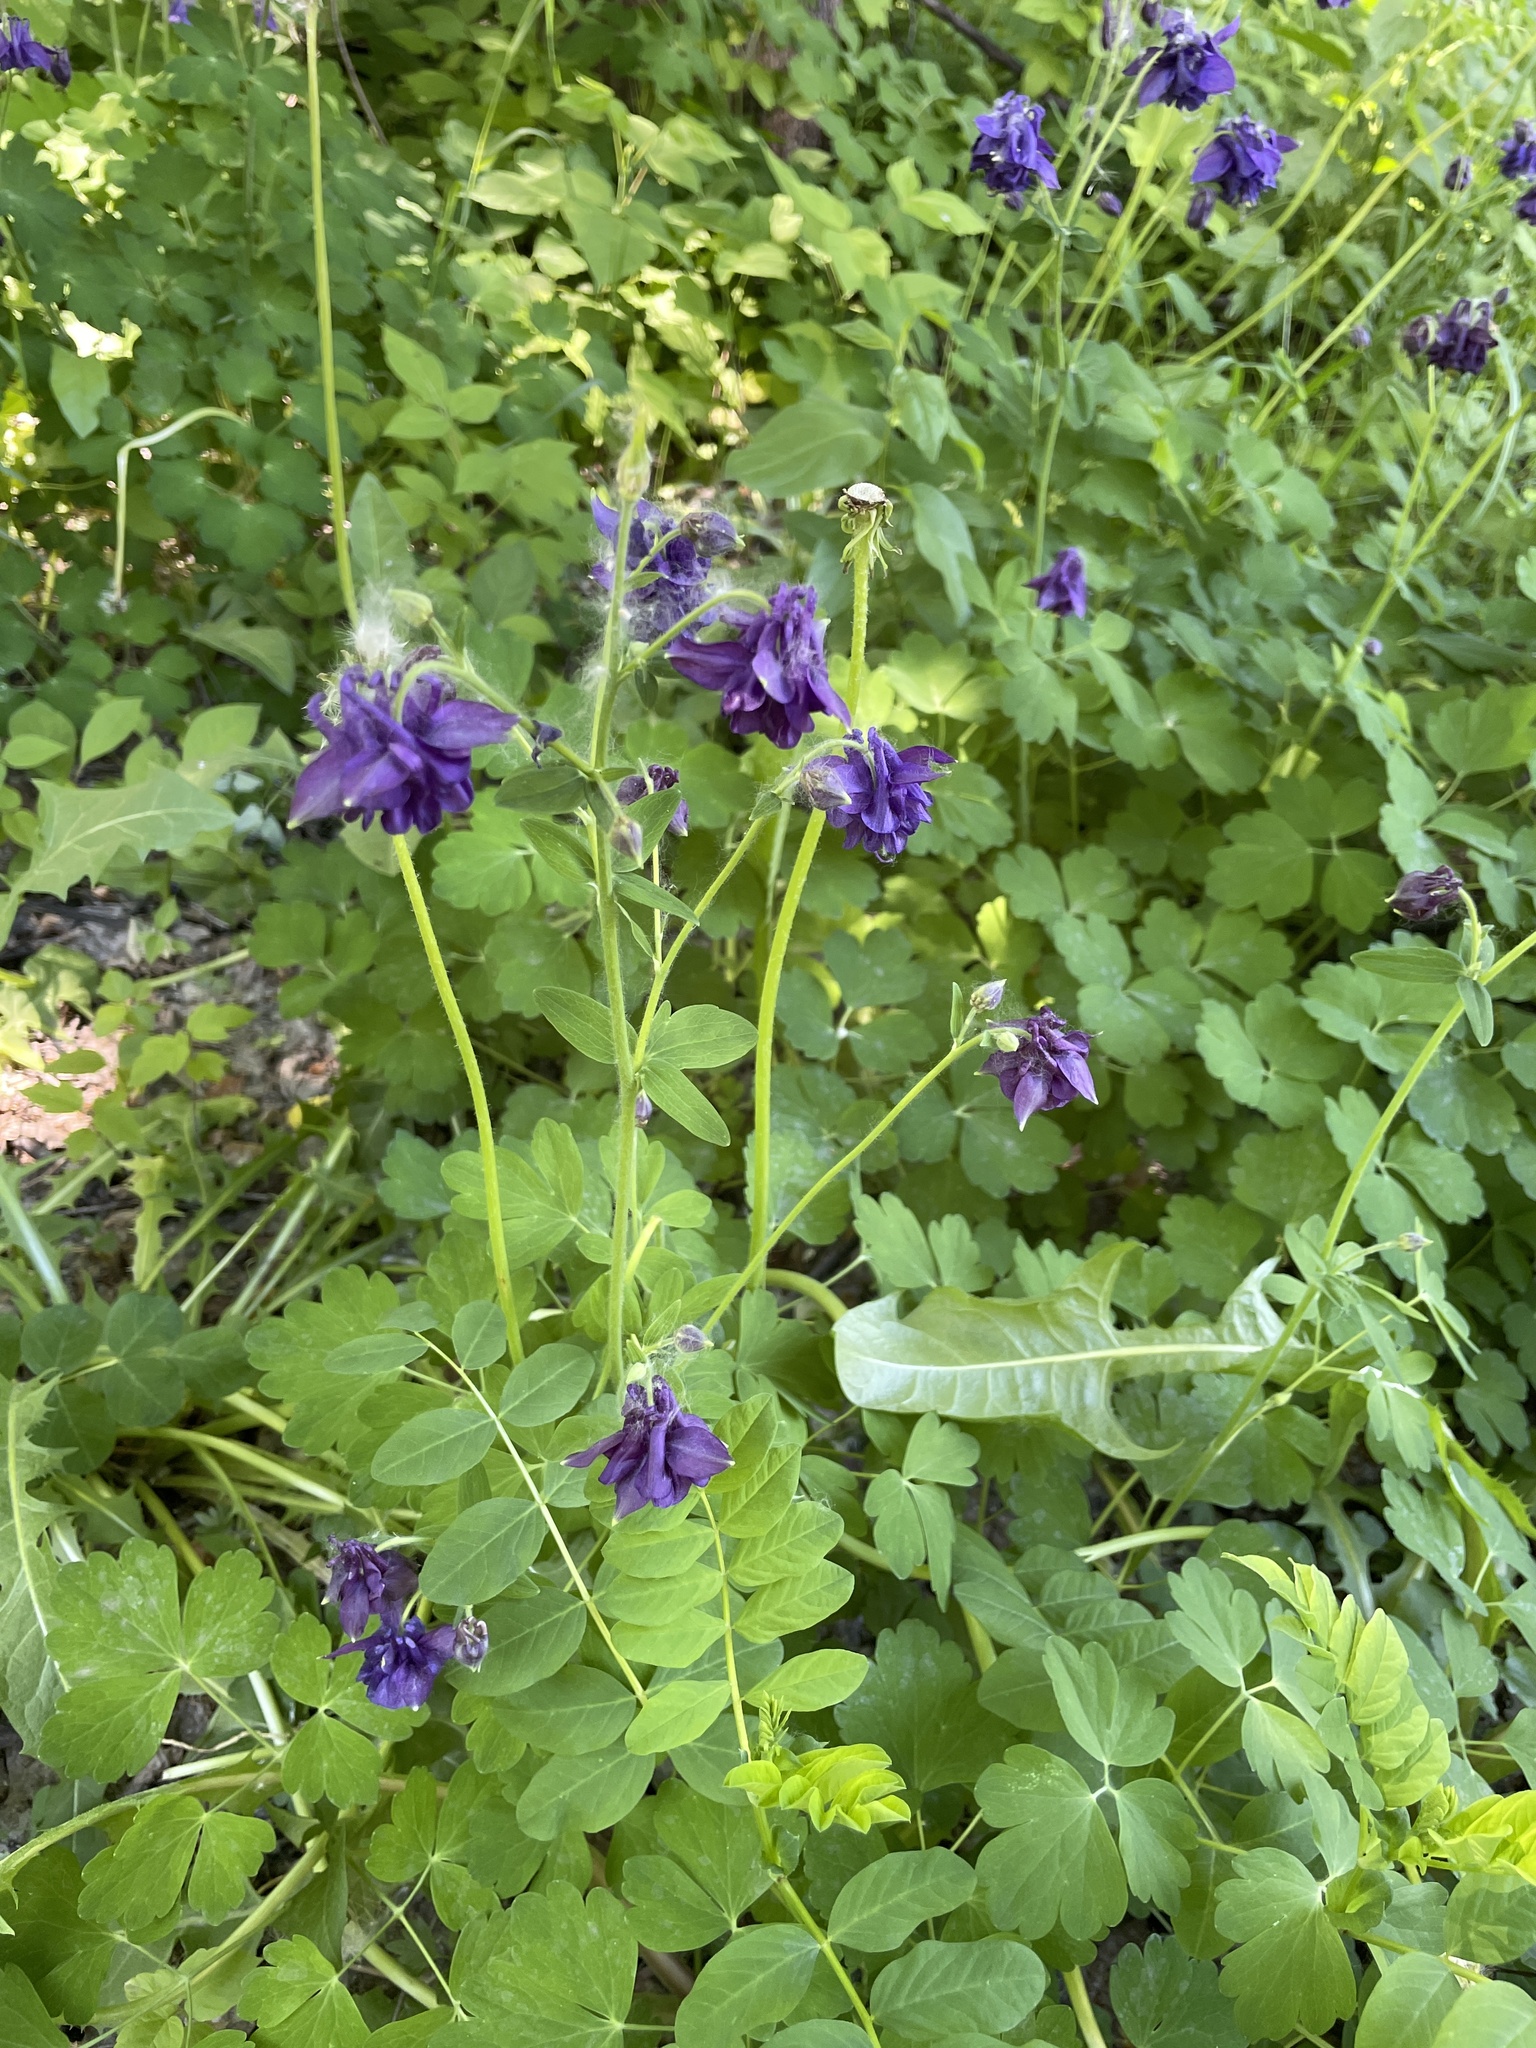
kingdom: Plantae
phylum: Tracheophyta
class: Magnoliopsida
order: Ranunculales
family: Ranunculaceae
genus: Aquilegia
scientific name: Aquilegia vulgaris
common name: Columbine
